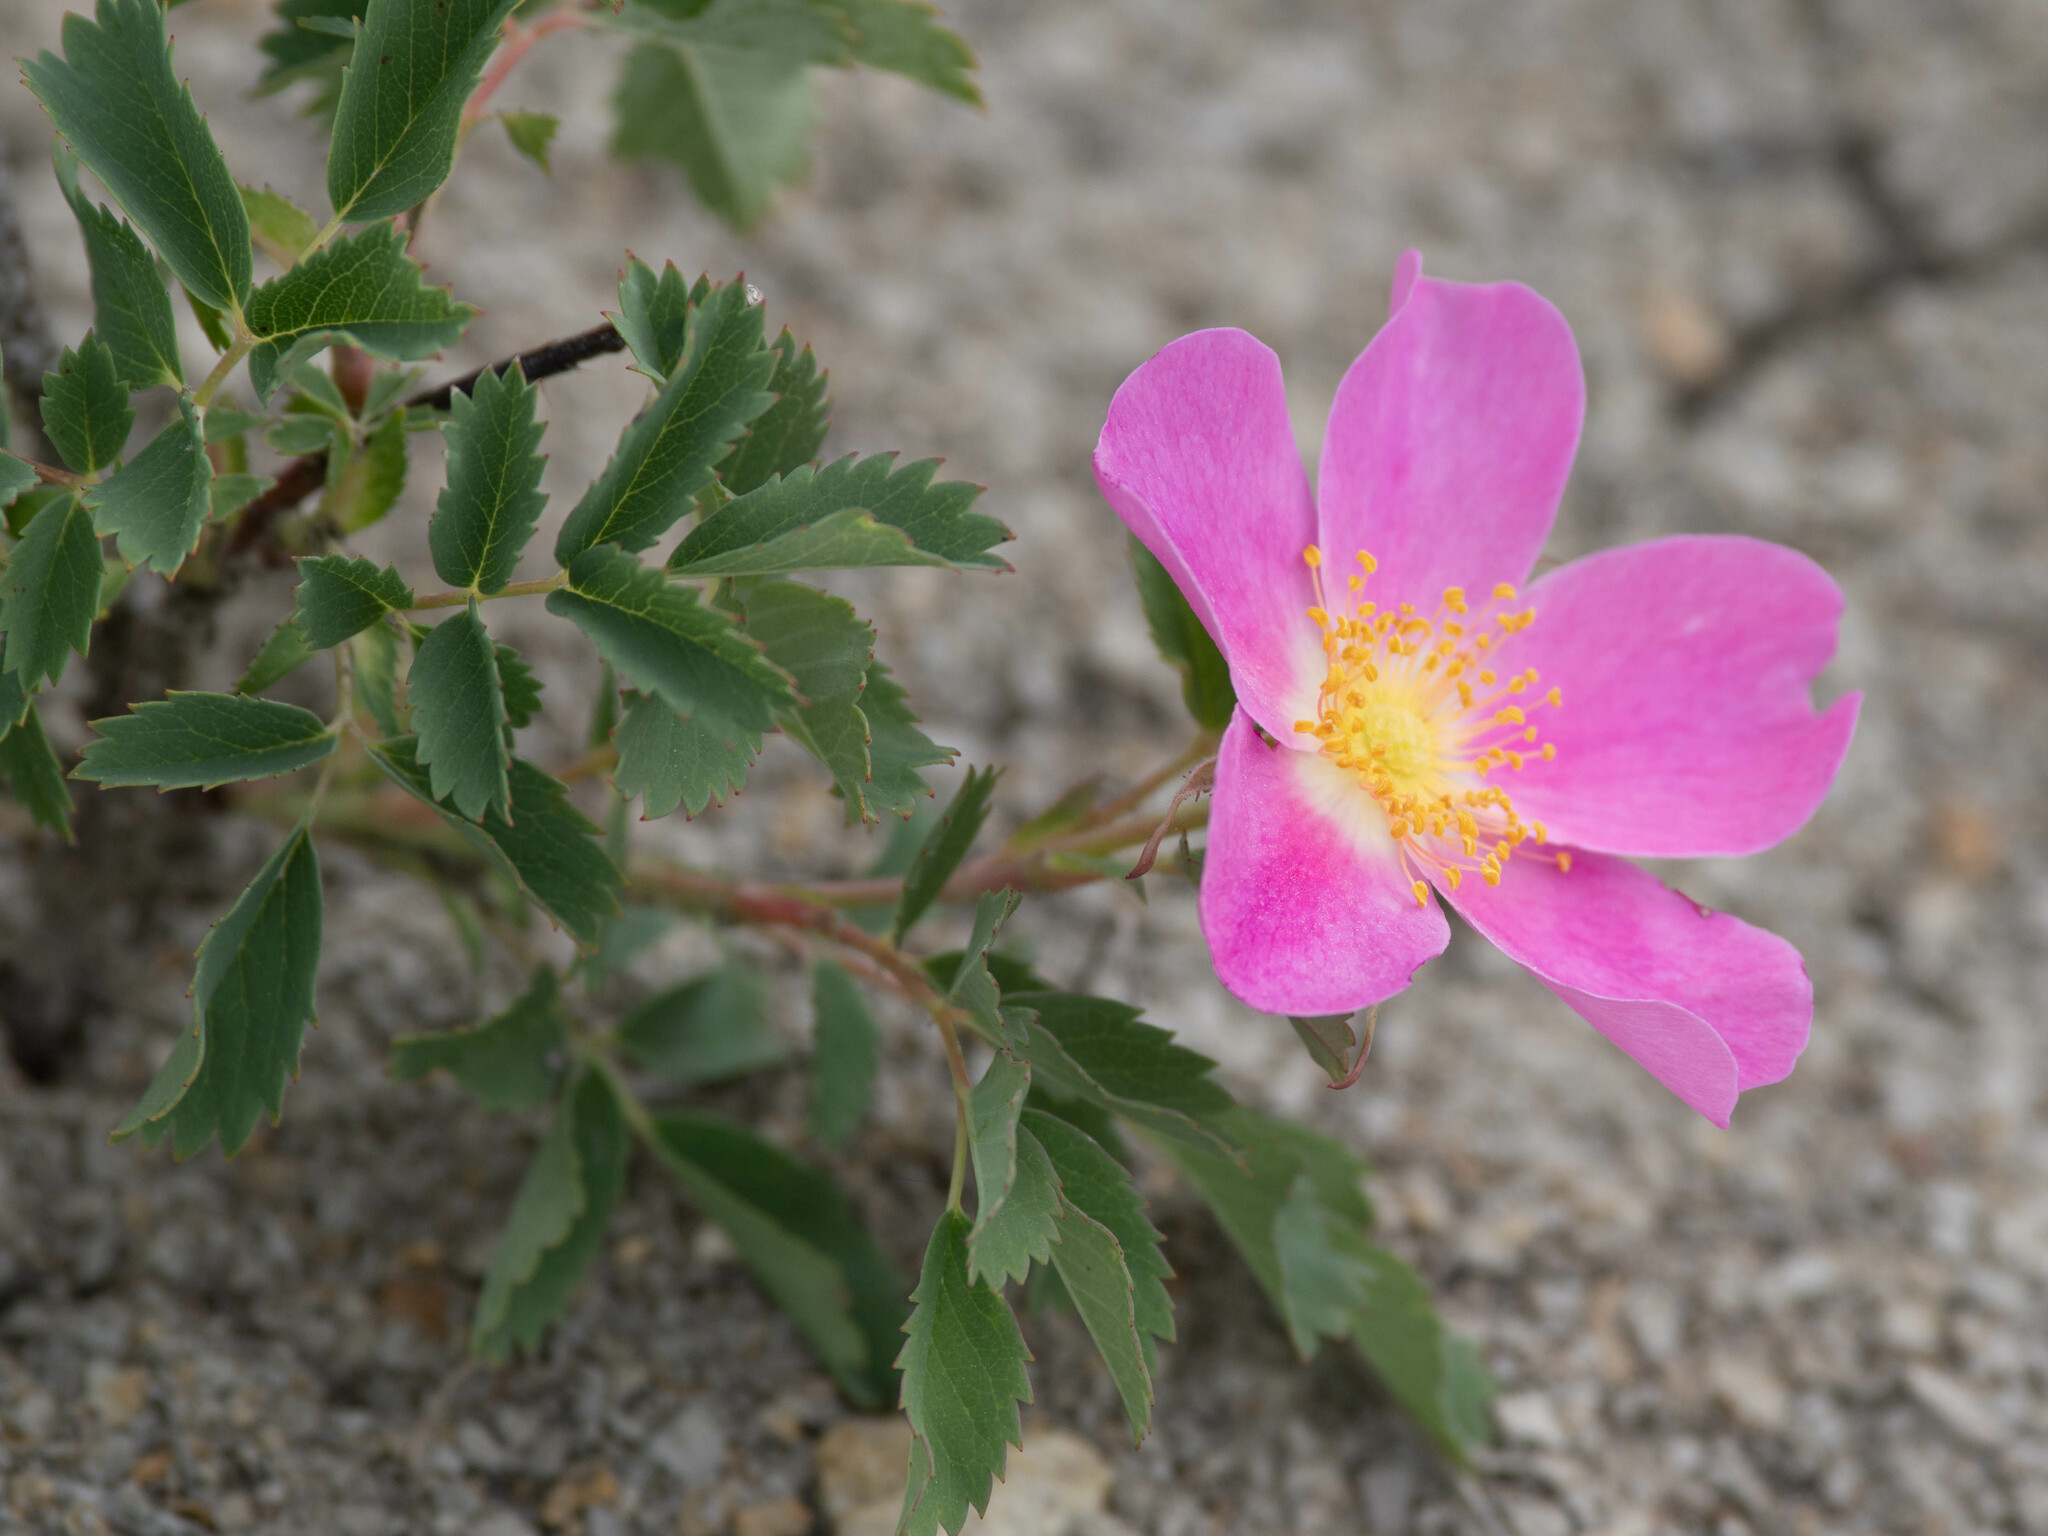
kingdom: Plantae
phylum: Tracheophyta
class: Magnoliopsida
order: Rosales
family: Rosaceae
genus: Rosa
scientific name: Rosa arkansana
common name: Prairie rose
